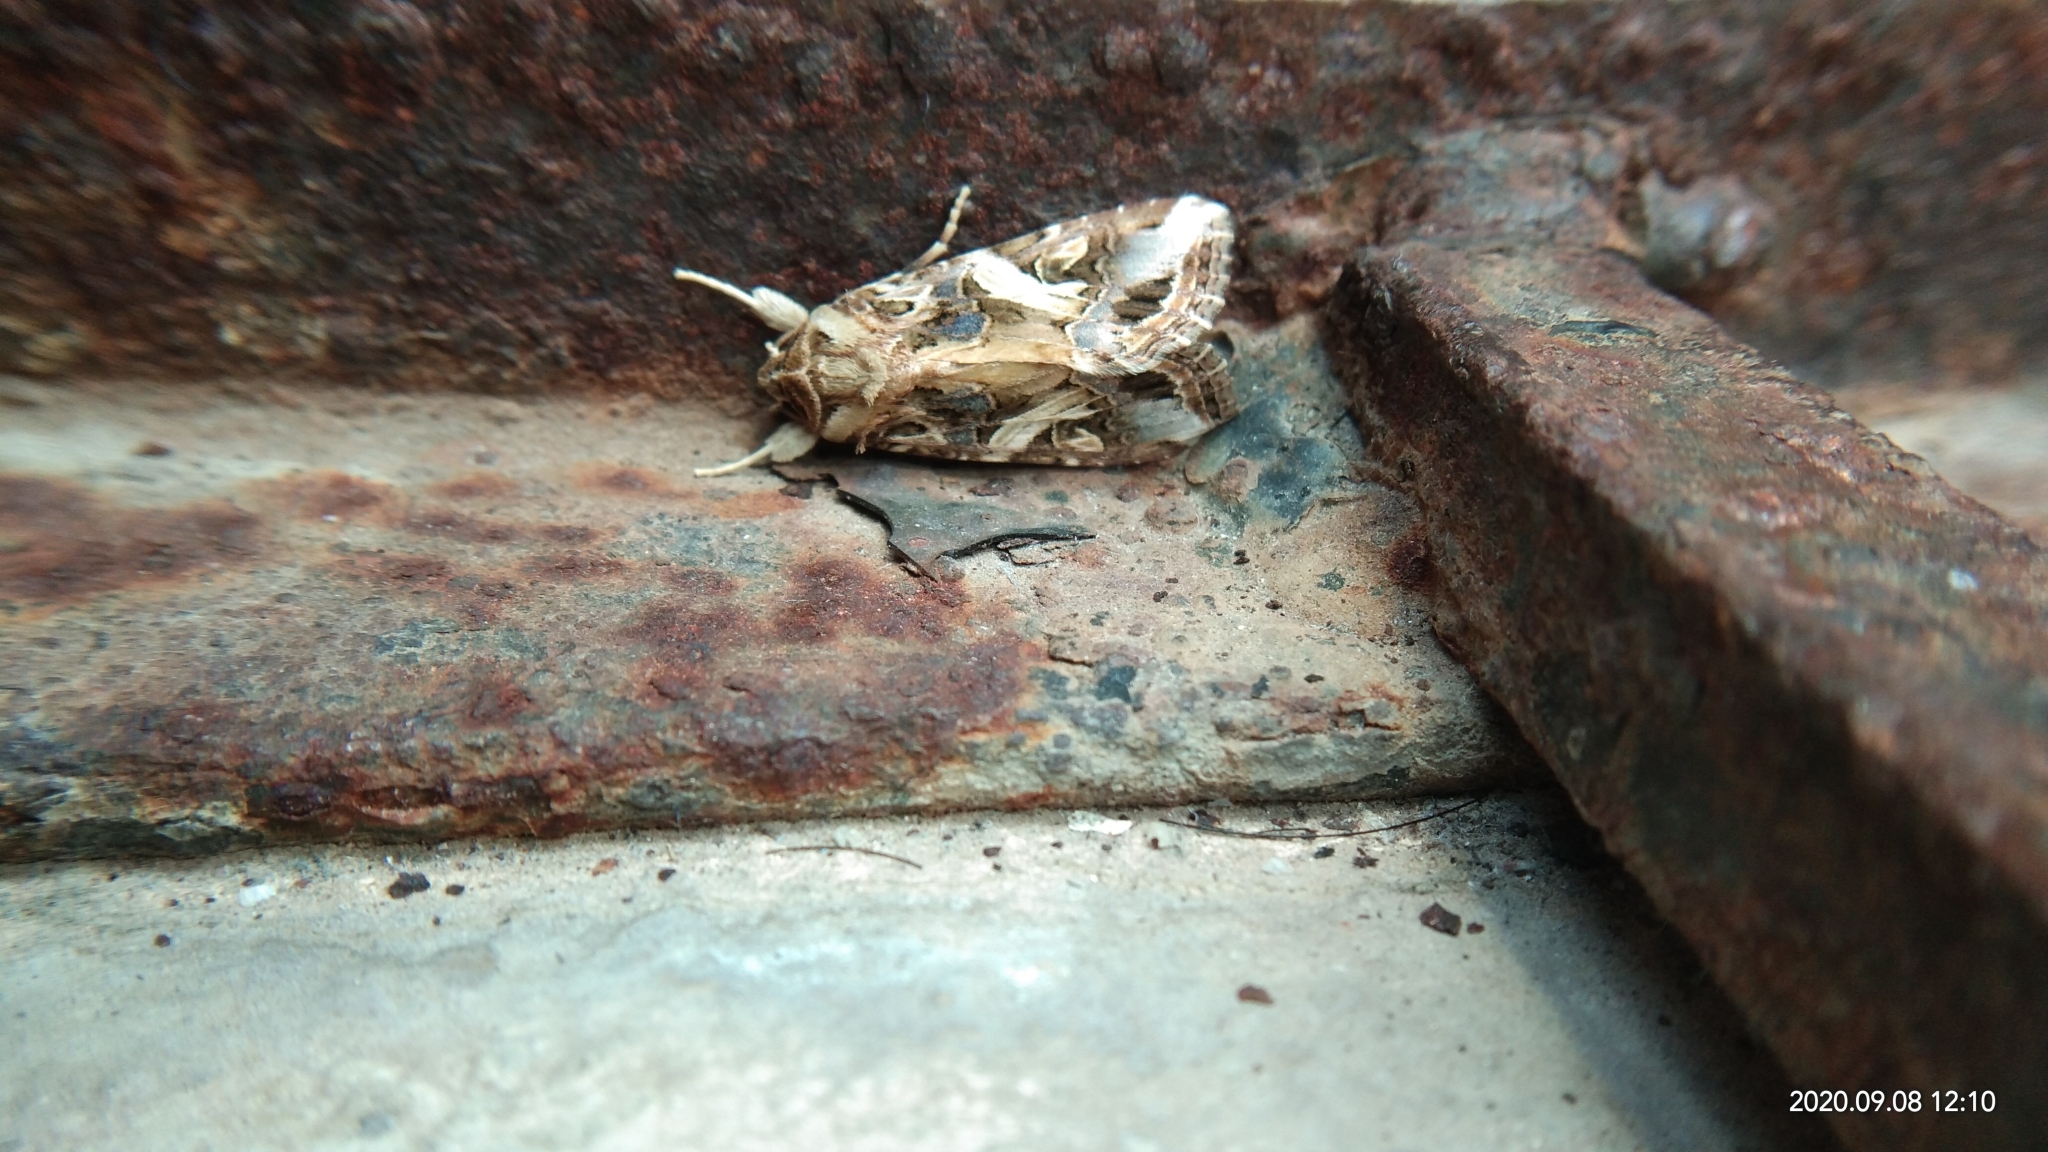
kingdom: Animalia
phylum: Arthropoda
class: Insecta
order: Lepidoptera
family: Noctuidae
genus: Spodoptera
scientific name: Spodoptera litura
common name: Asian cotton leafworm
